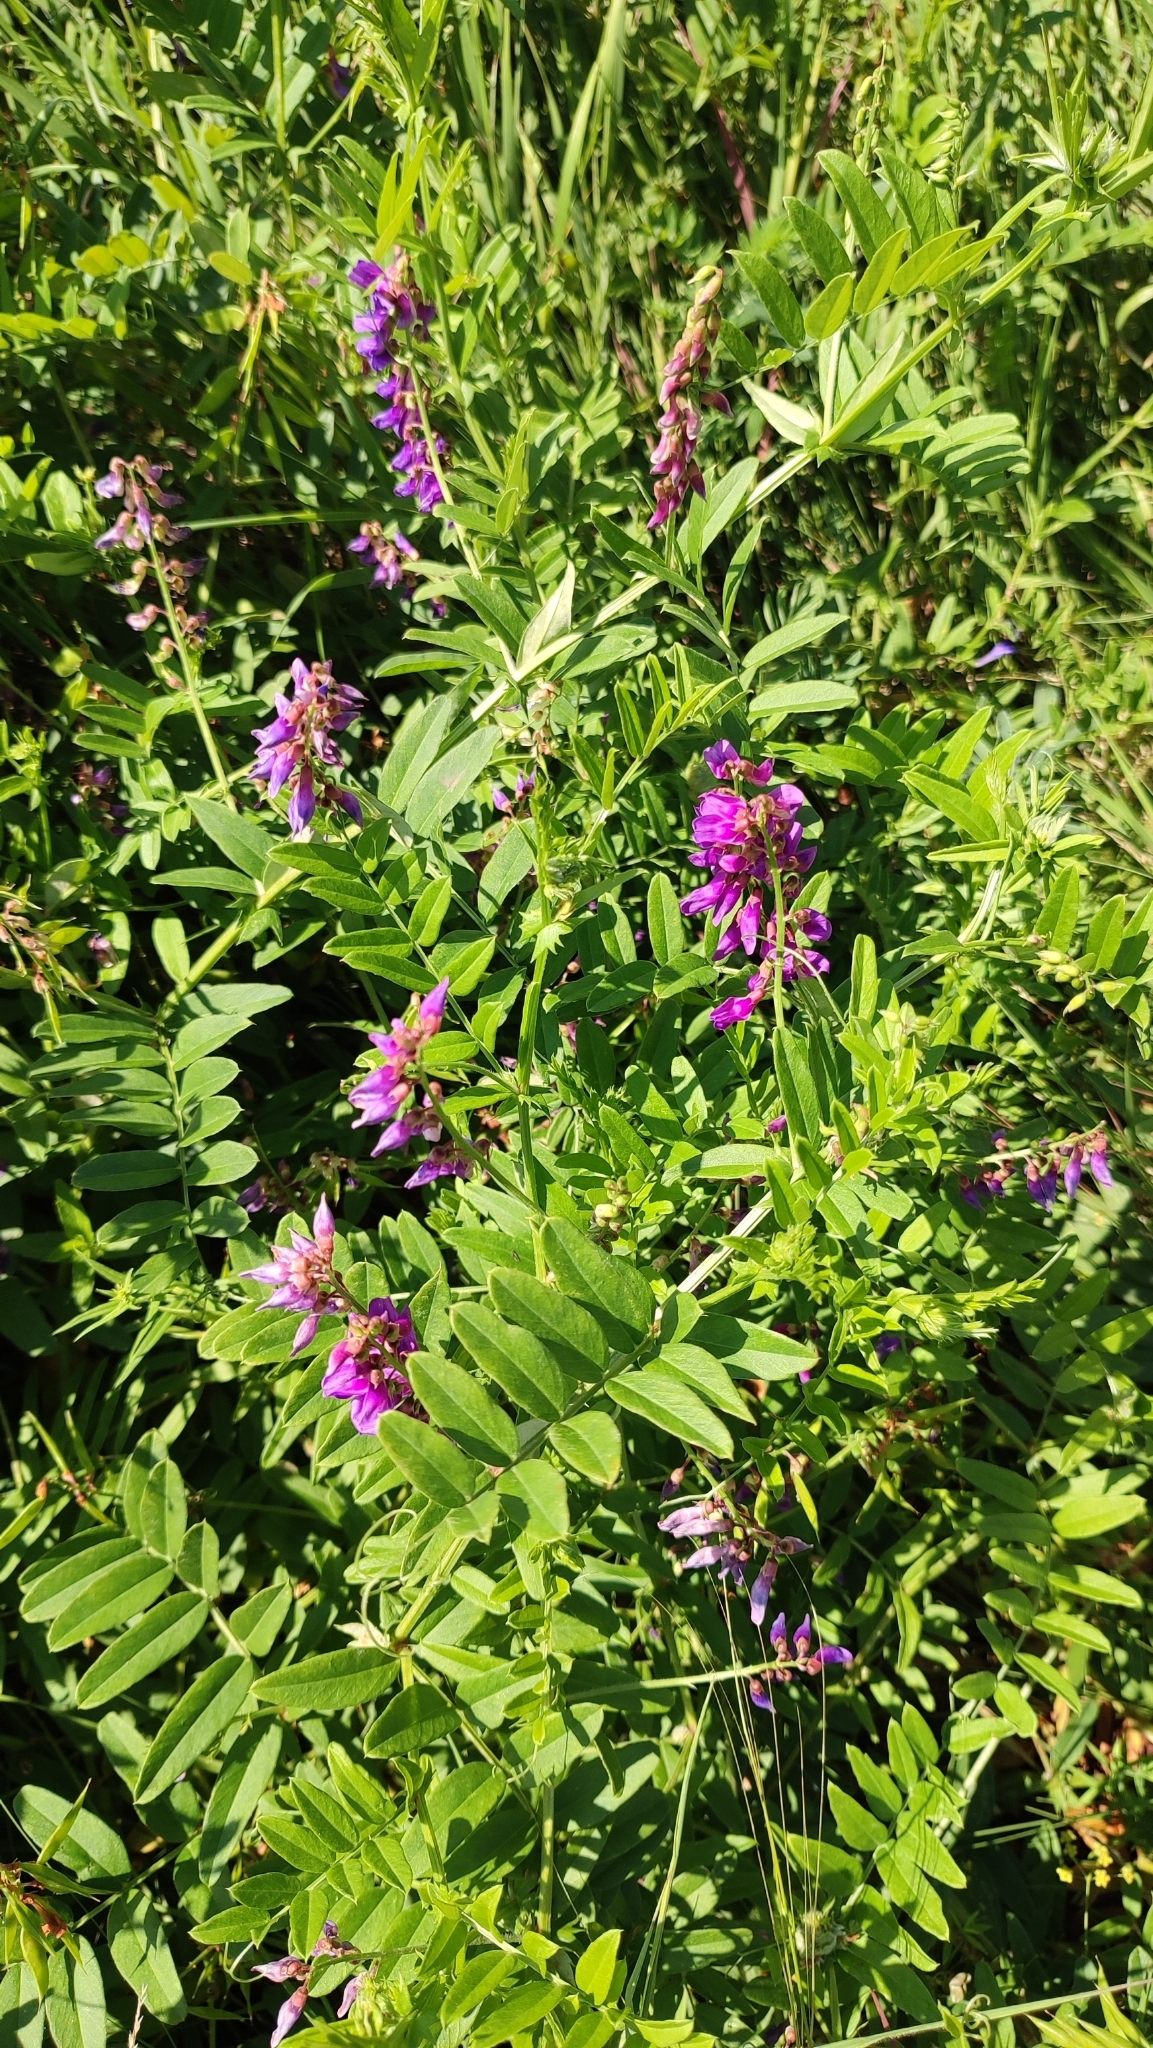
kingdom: Plantae
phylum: Tracheophyta
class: Magnoliopsida
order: Fabales
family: Fabaceae
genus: Vicia
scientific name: Vicia amoena
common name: Cheder ebs
